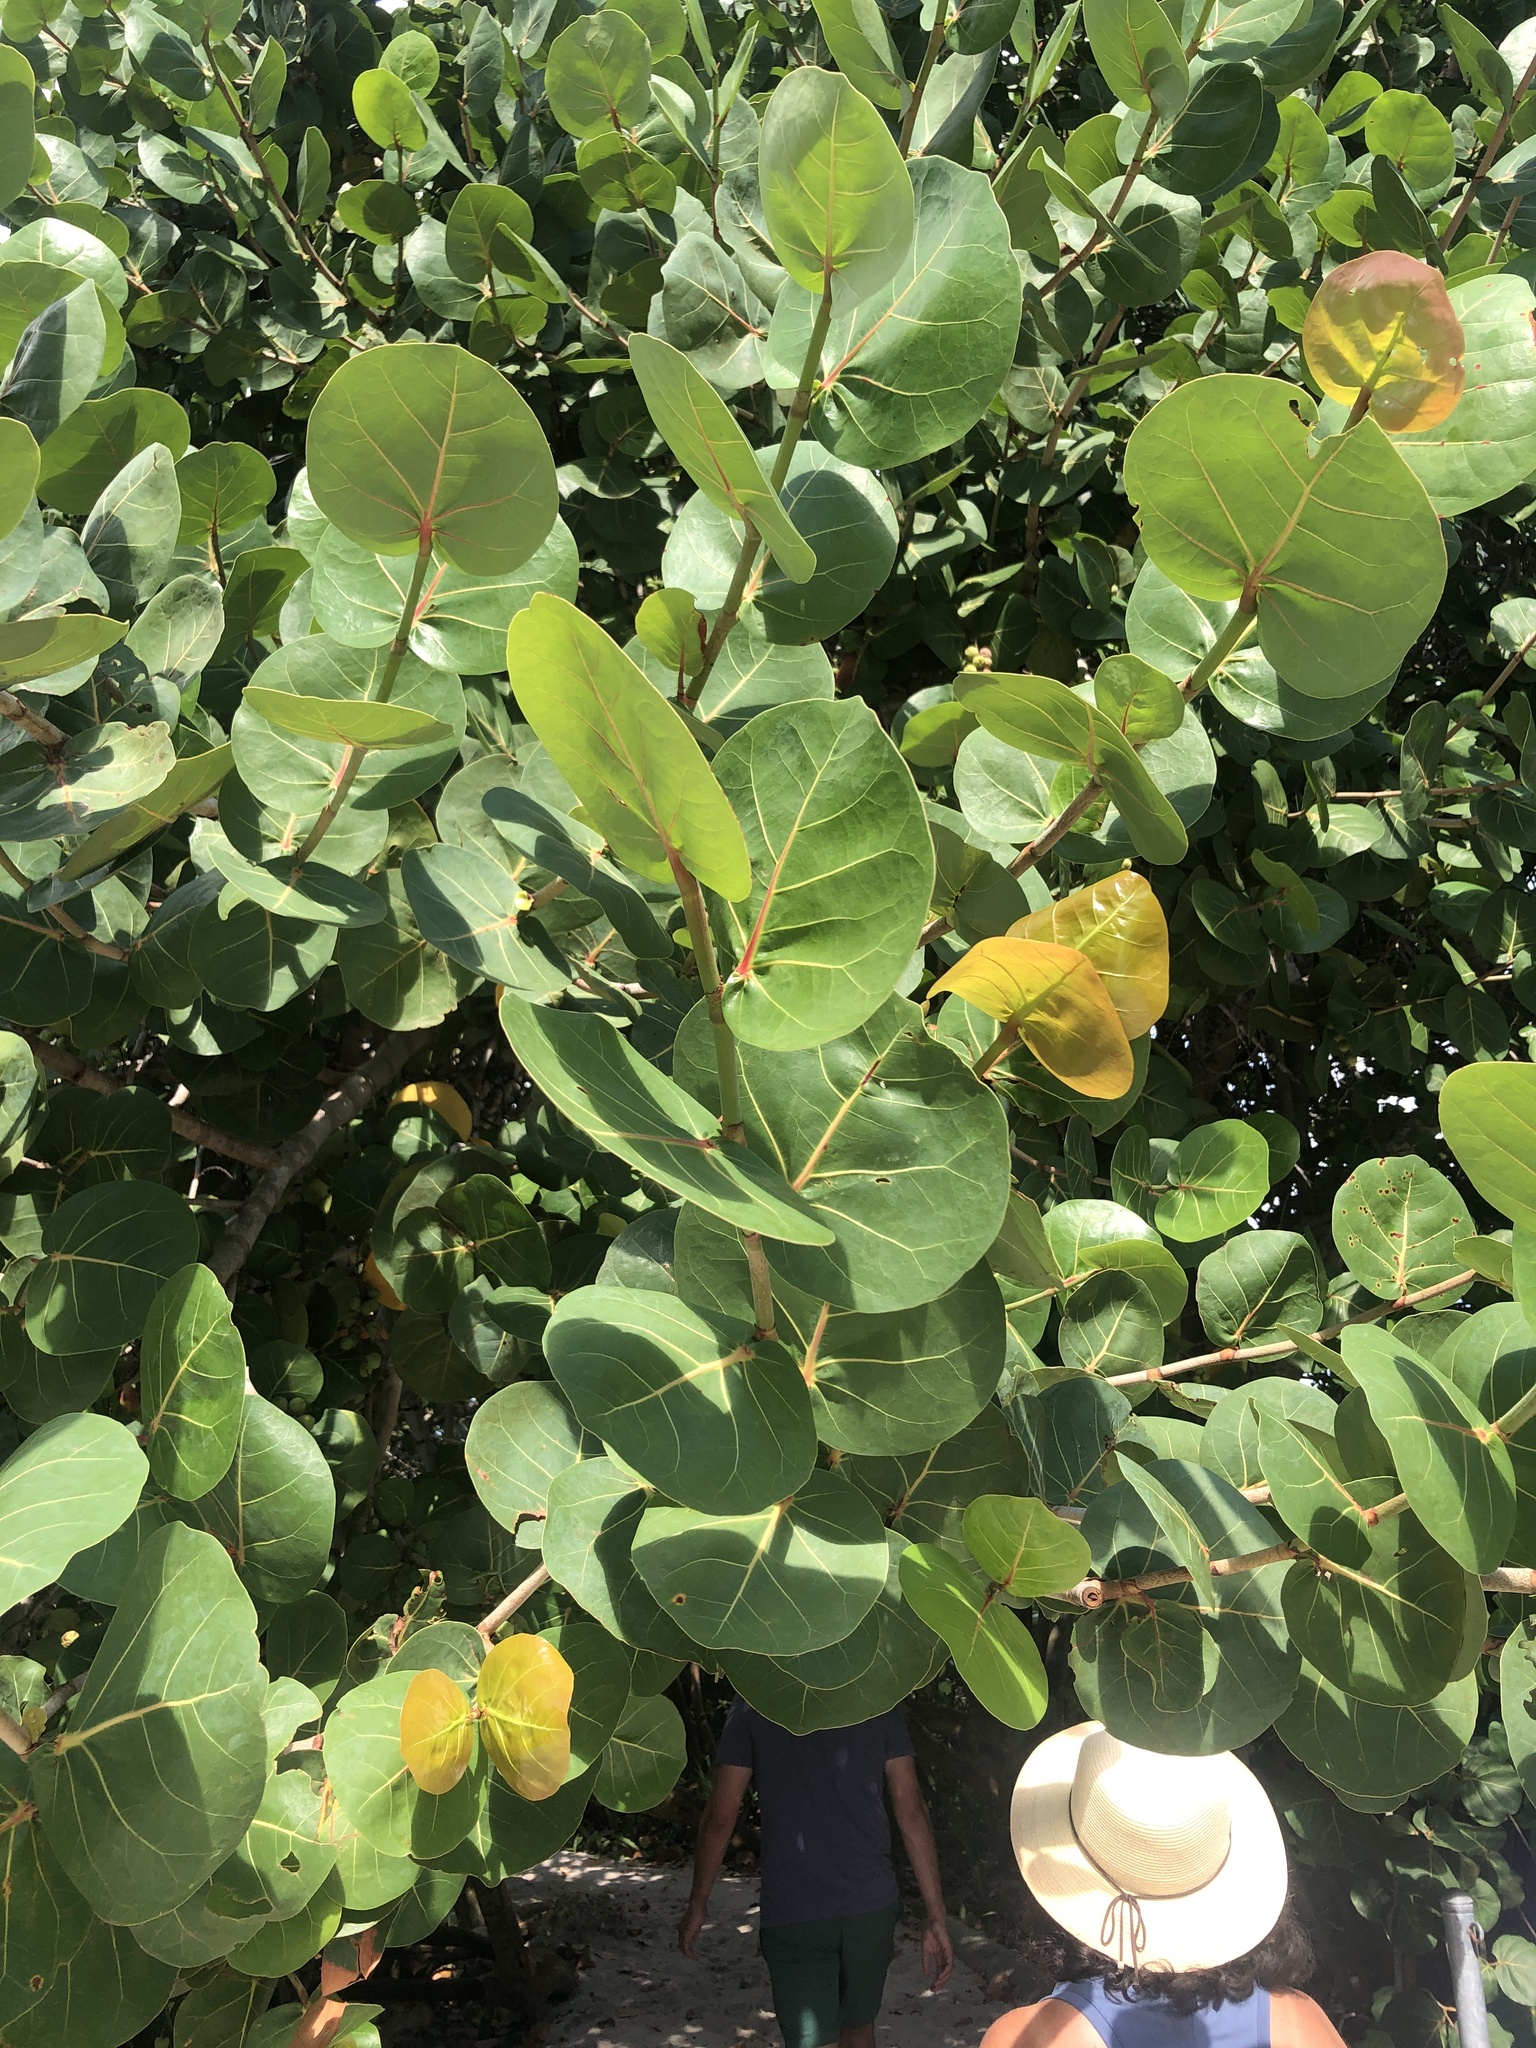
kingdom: Plantae
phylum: Tracheophyta
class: Magnoliopsida
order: Caryophyllales
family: Polygonaceae
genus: Coccoloba
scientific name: Coccoloba uvifera
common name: Seagrape
